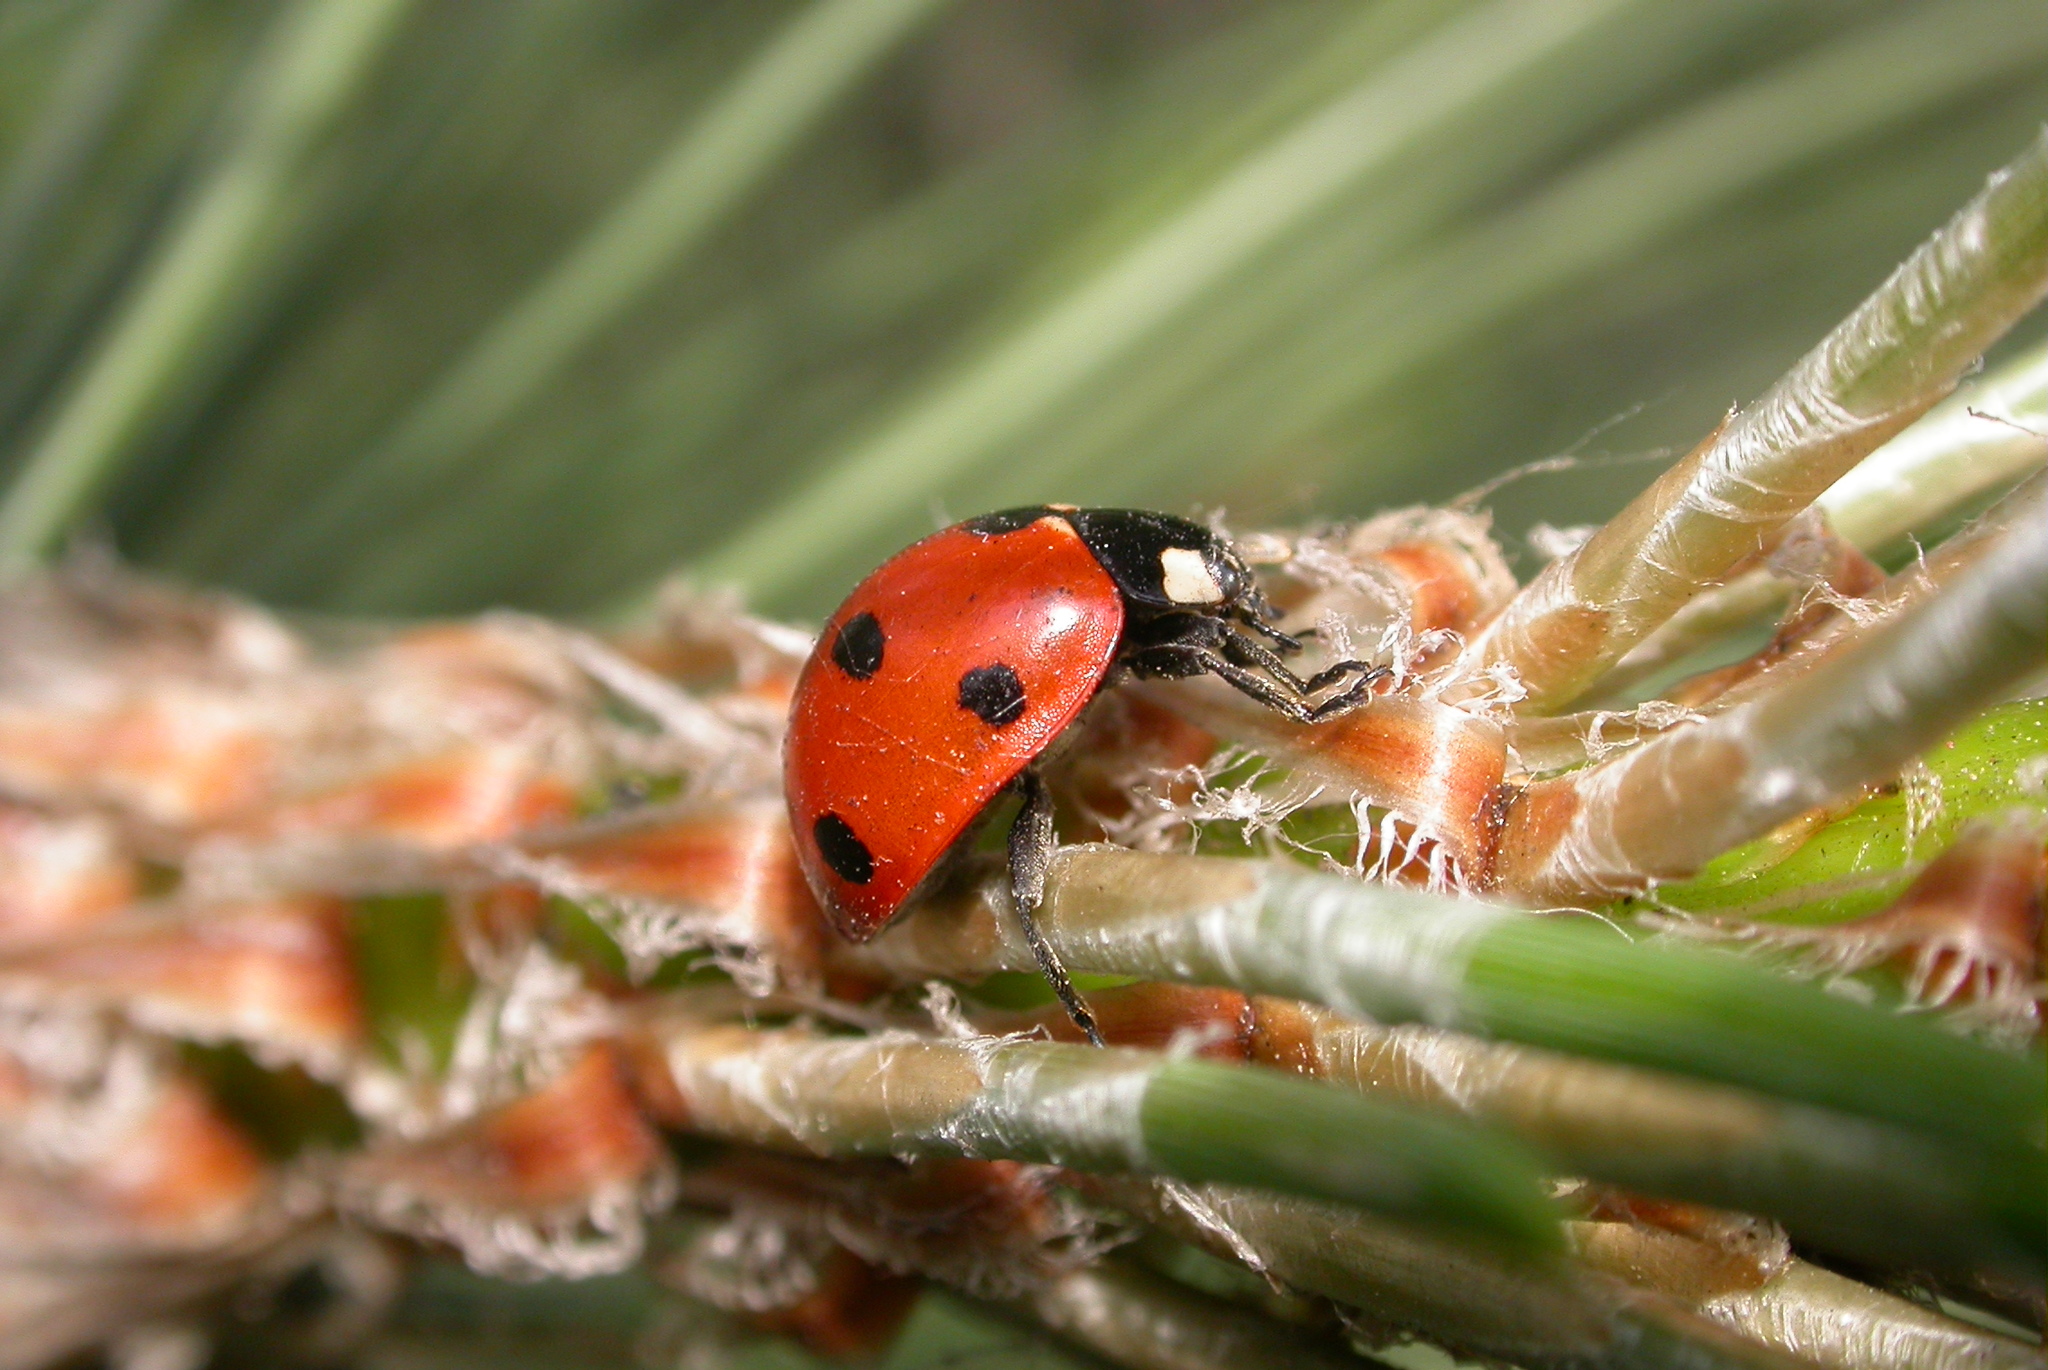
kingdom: Animalia
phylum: Arthropoda
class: Insecta
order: Coleoptera
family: Coccinellidae
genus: Coccinella
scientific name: Coccinella septempunctata
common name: Sevenspotted lady beetle
